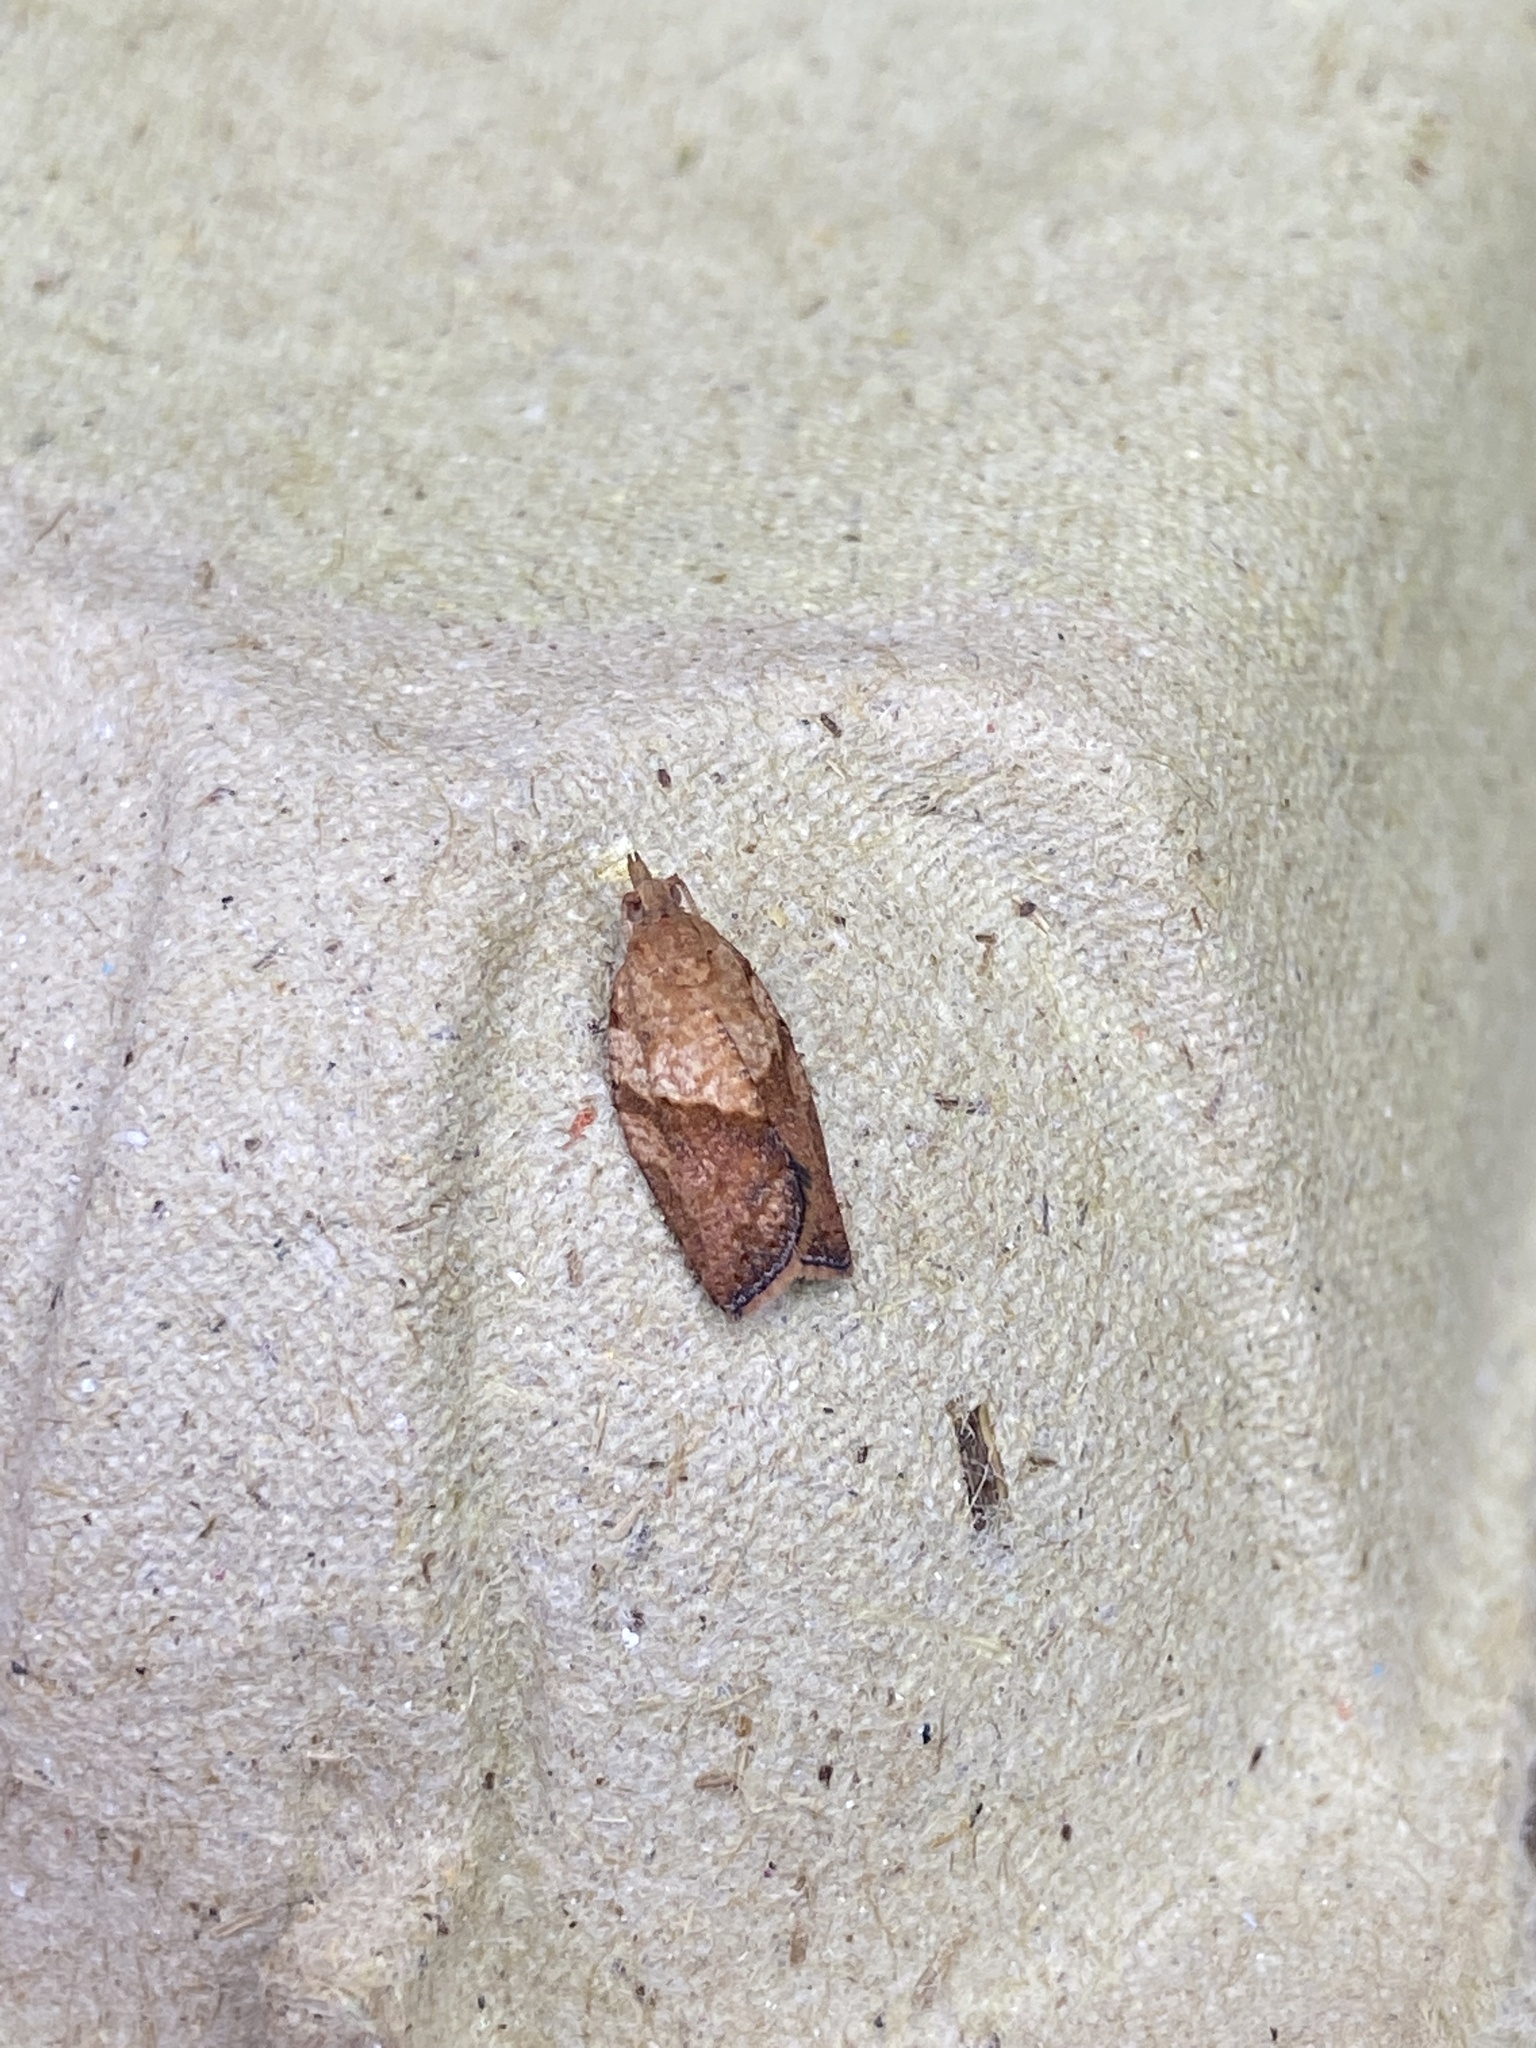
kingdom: Animalia
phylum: Arthropoda
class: Insecta
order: Lepidoptera
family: Tortricidae
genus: Epiphyas
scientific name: Epiphyas postvittana
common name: Light brown apple moth
